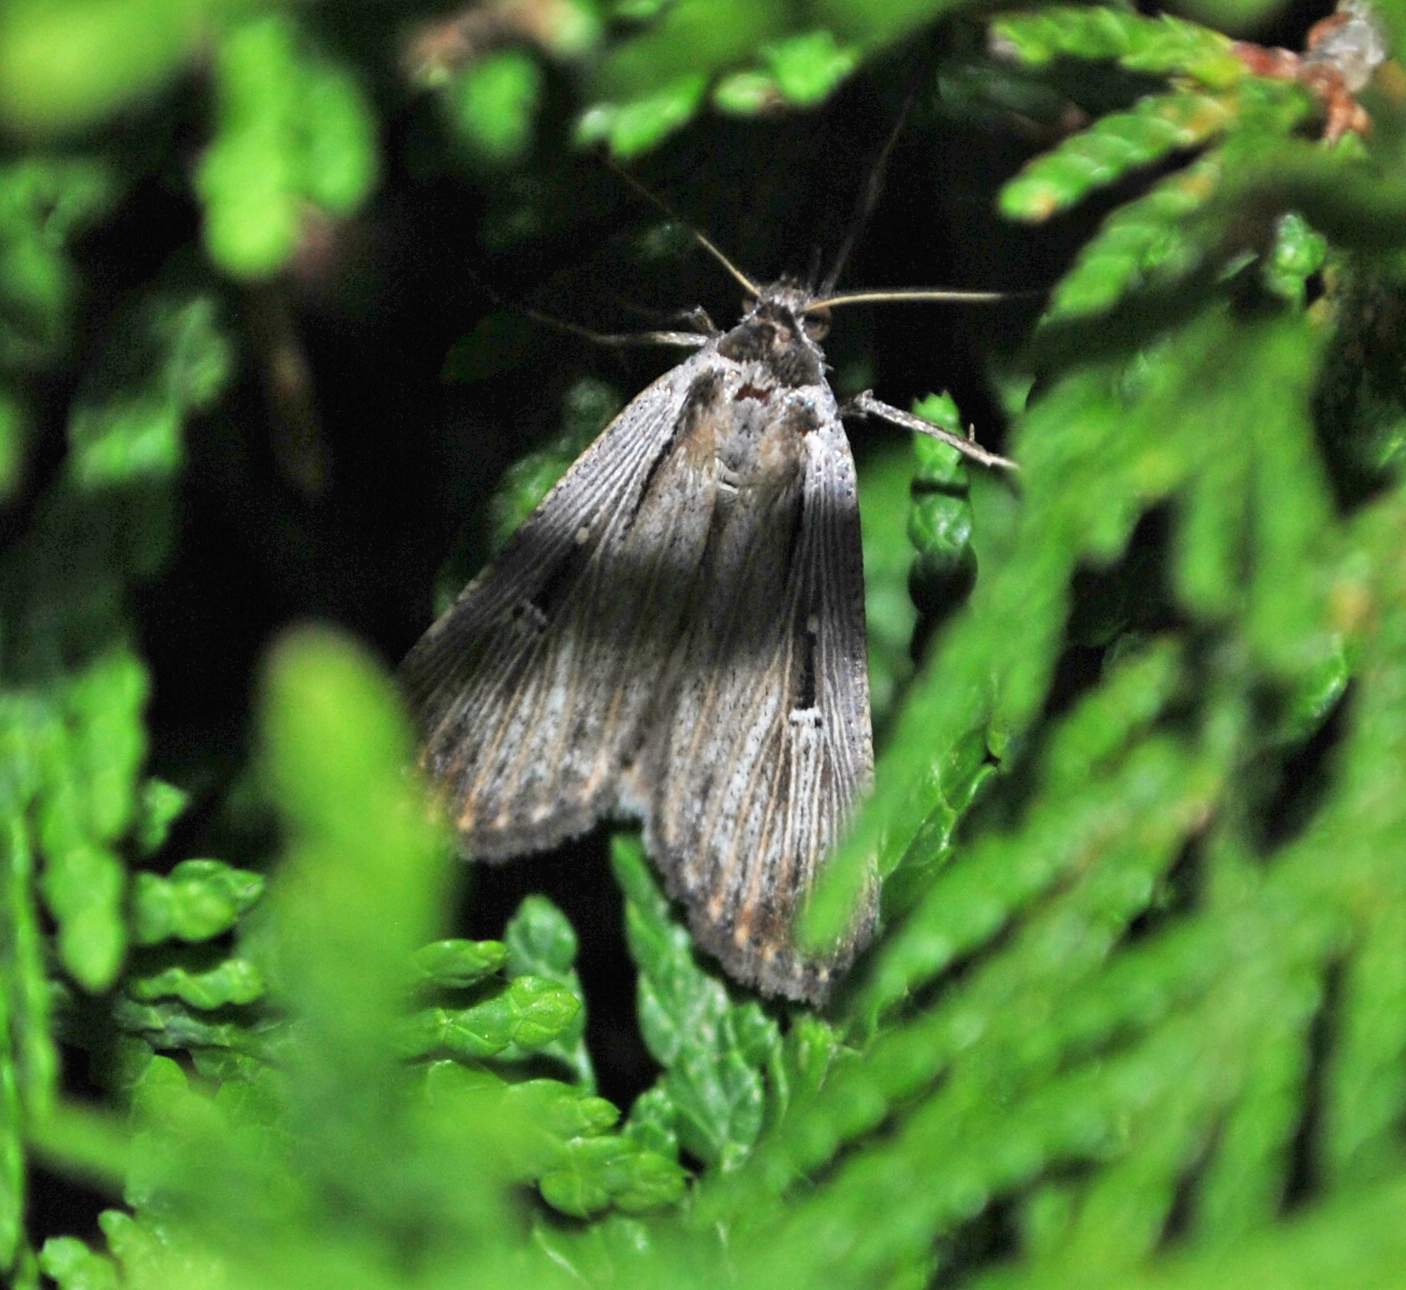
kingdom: Animalia
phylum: Arthropoda
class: Insecta
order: Lepidoptera
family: Noctuidae
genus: Tathorhynchus
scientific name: Tathorhynchus exsiccata
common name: Levant blackneck moth
